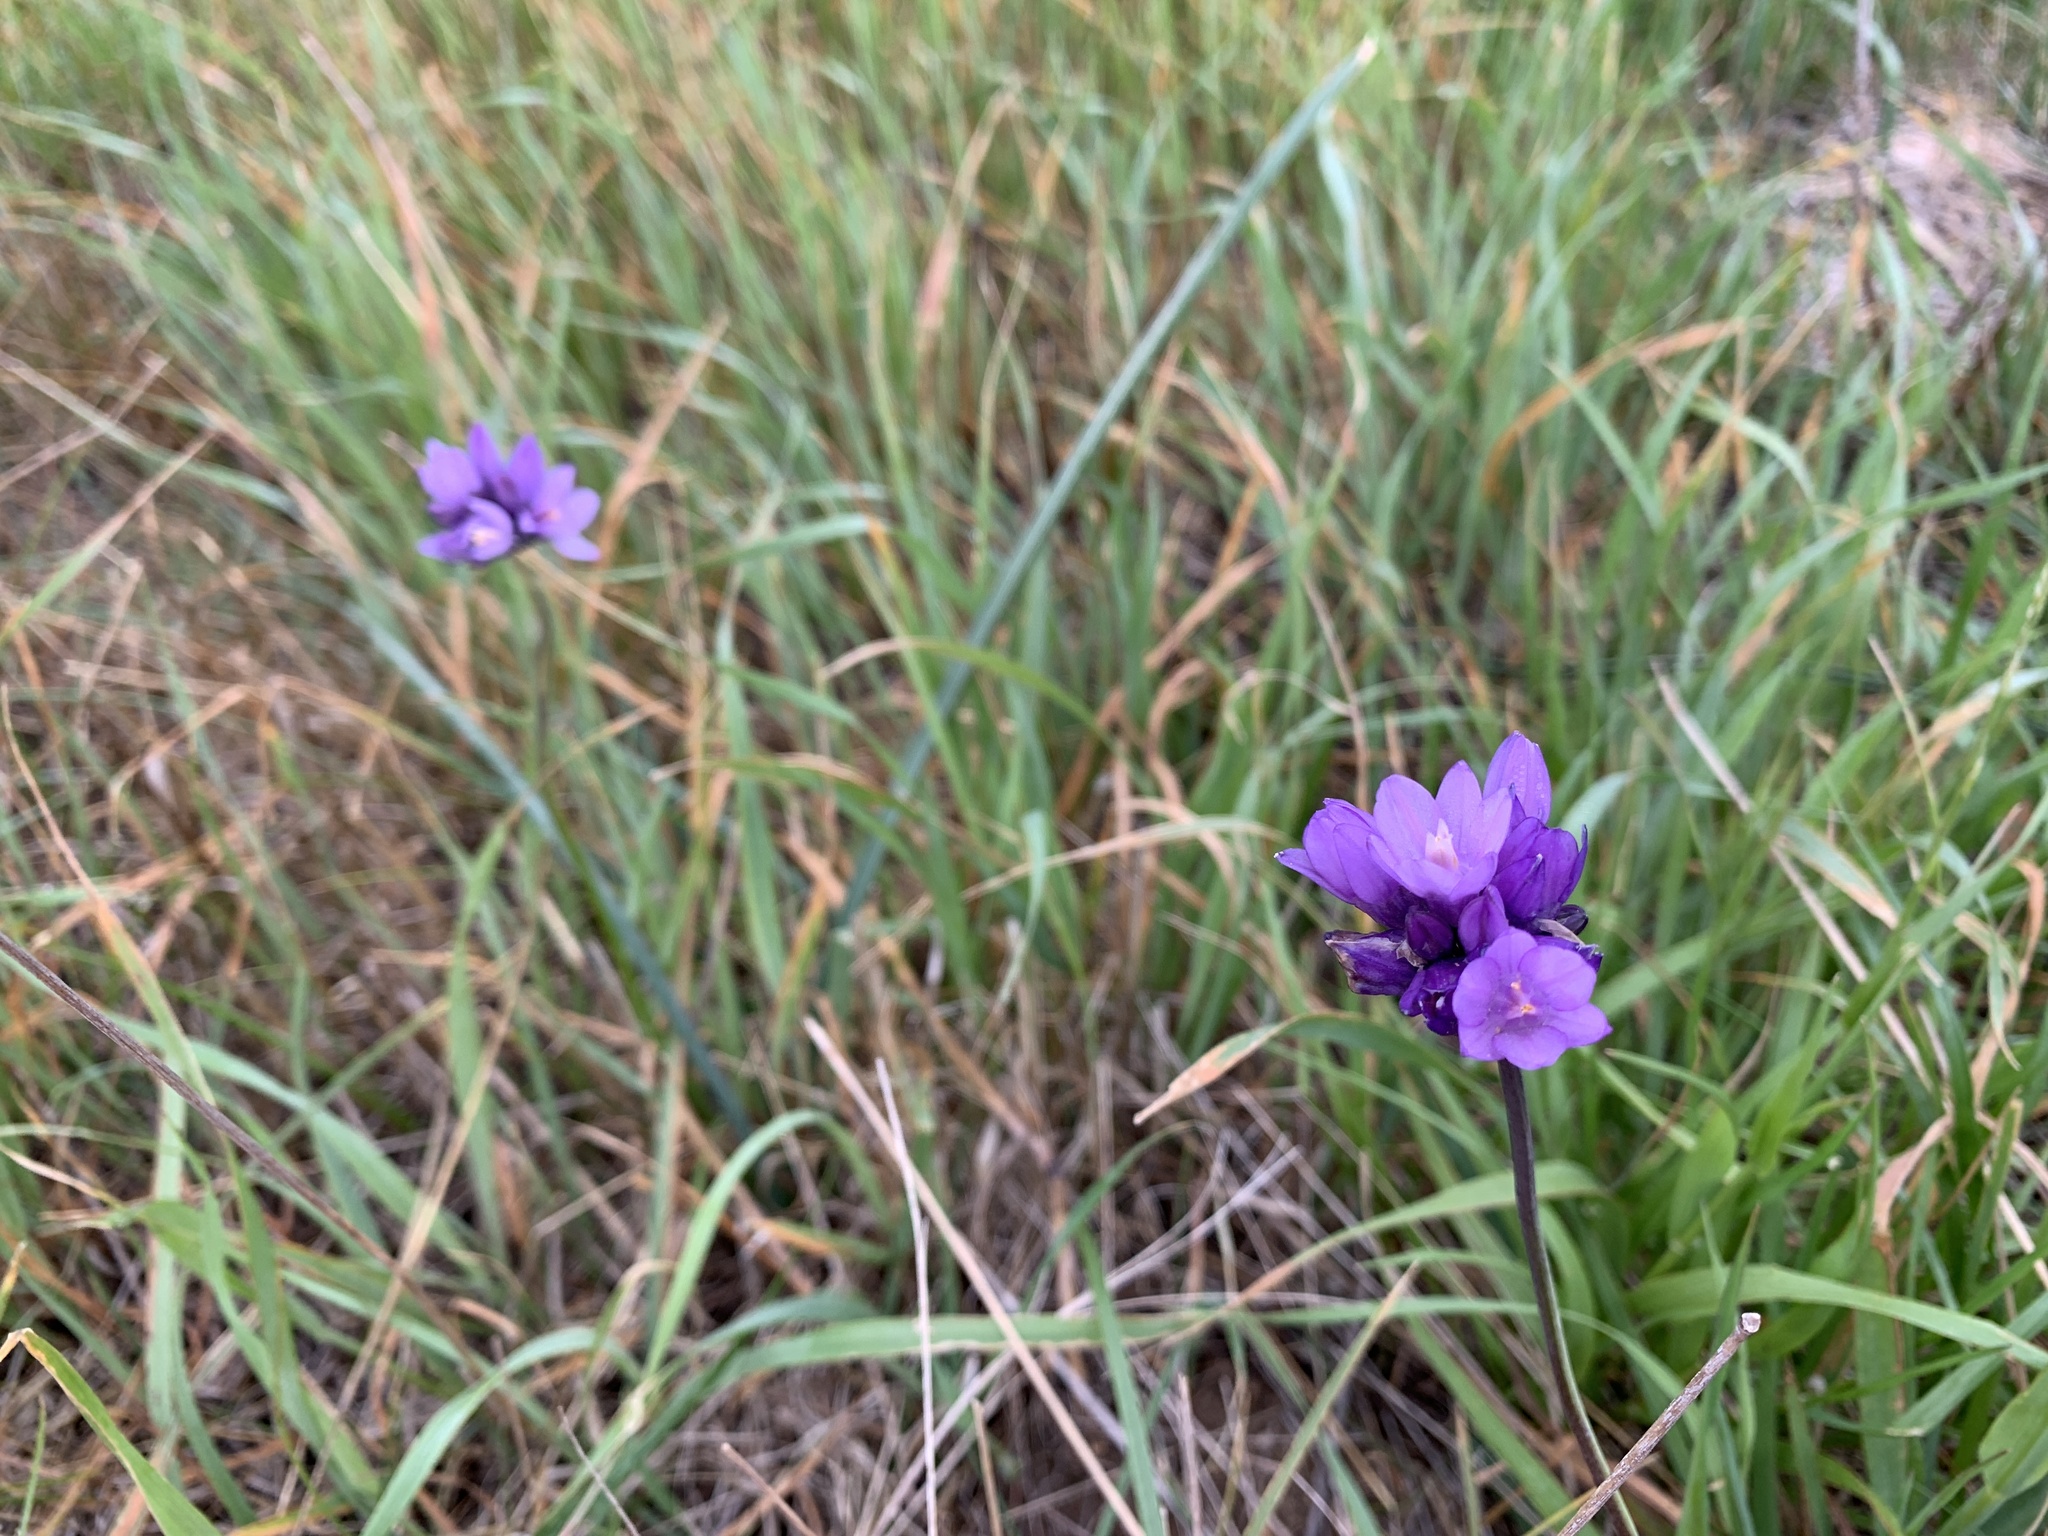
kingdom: Plantae
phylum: Tracheophyta
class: Liliopsida
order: Asparagales
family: Asparagaceae
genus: Dipterostemon
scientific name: Dipterostemon capitatus
